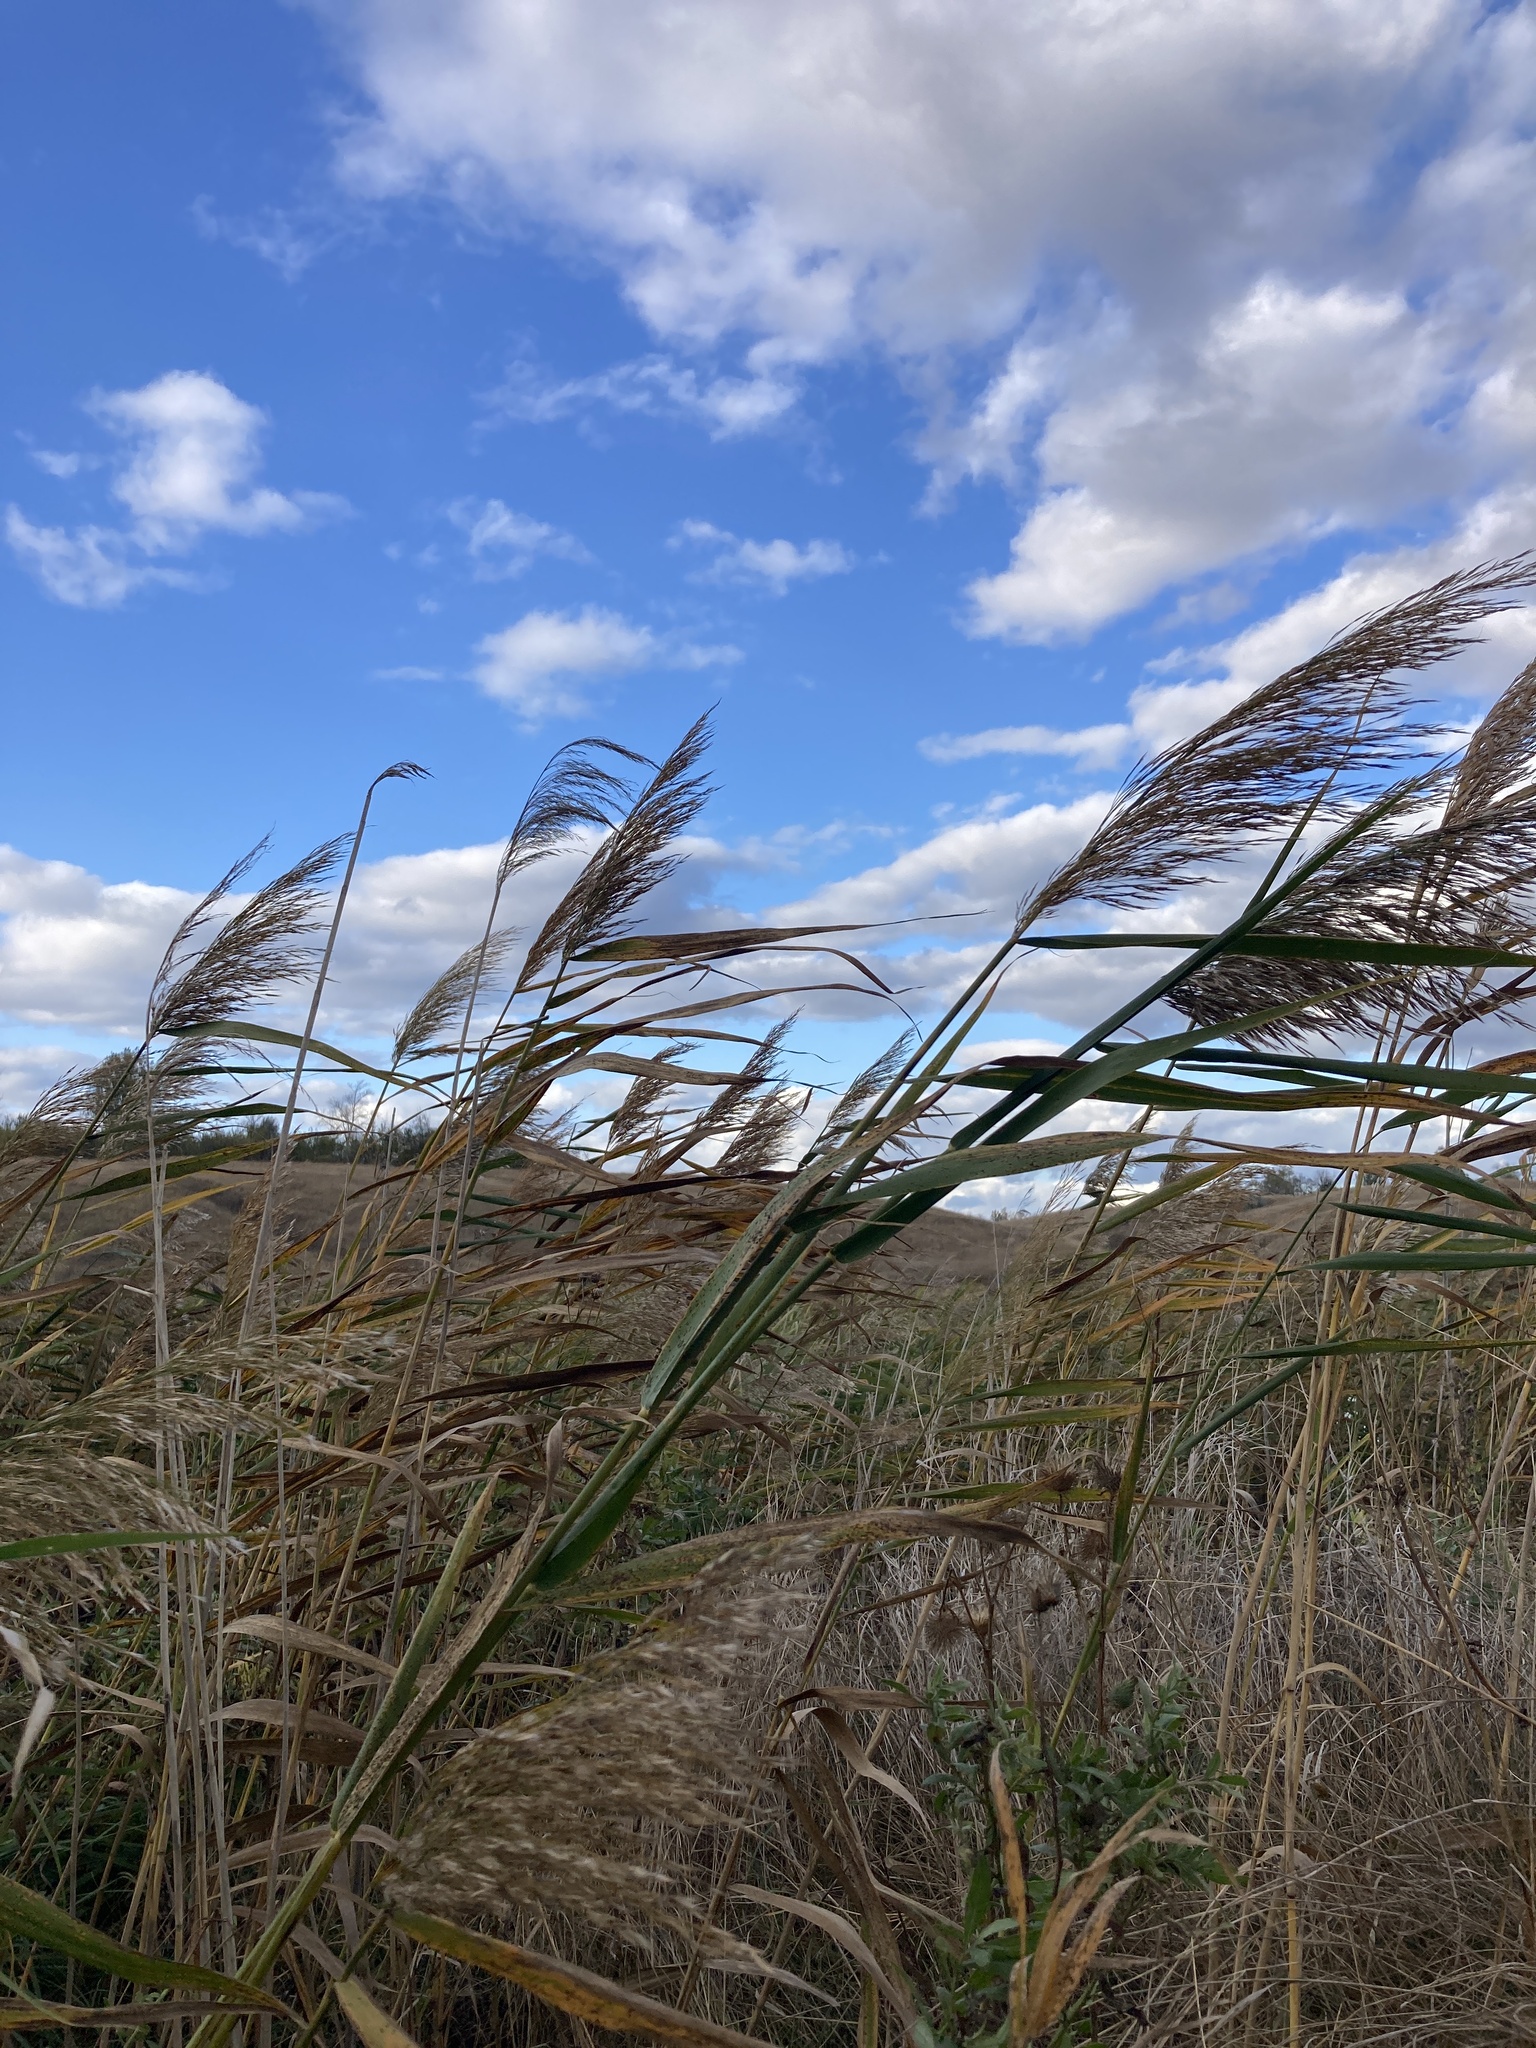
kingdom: Plantae
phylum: Tracheophyta
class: Liliopsida
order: Poales
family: Poaceae
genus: Phragmites
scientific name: Phragmites australis
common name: Common reed
